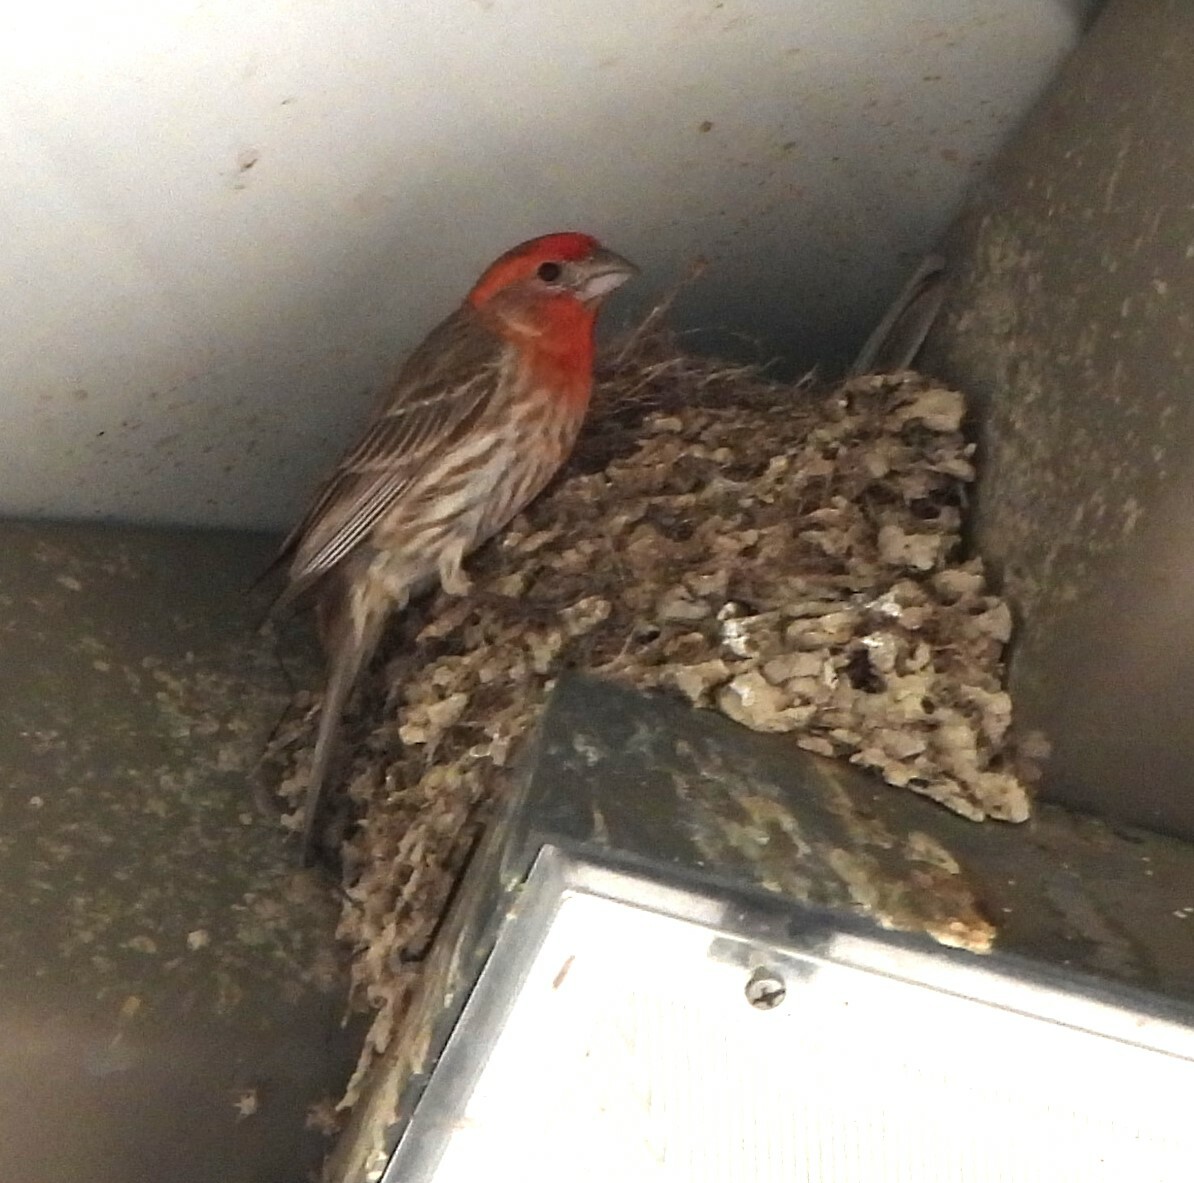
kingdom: Animalia
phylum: Chordata
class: Aves
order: Passeriformes
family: Fringillidae
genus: Haemorhous
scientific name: Haemorhous mexicanus
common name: House finch
